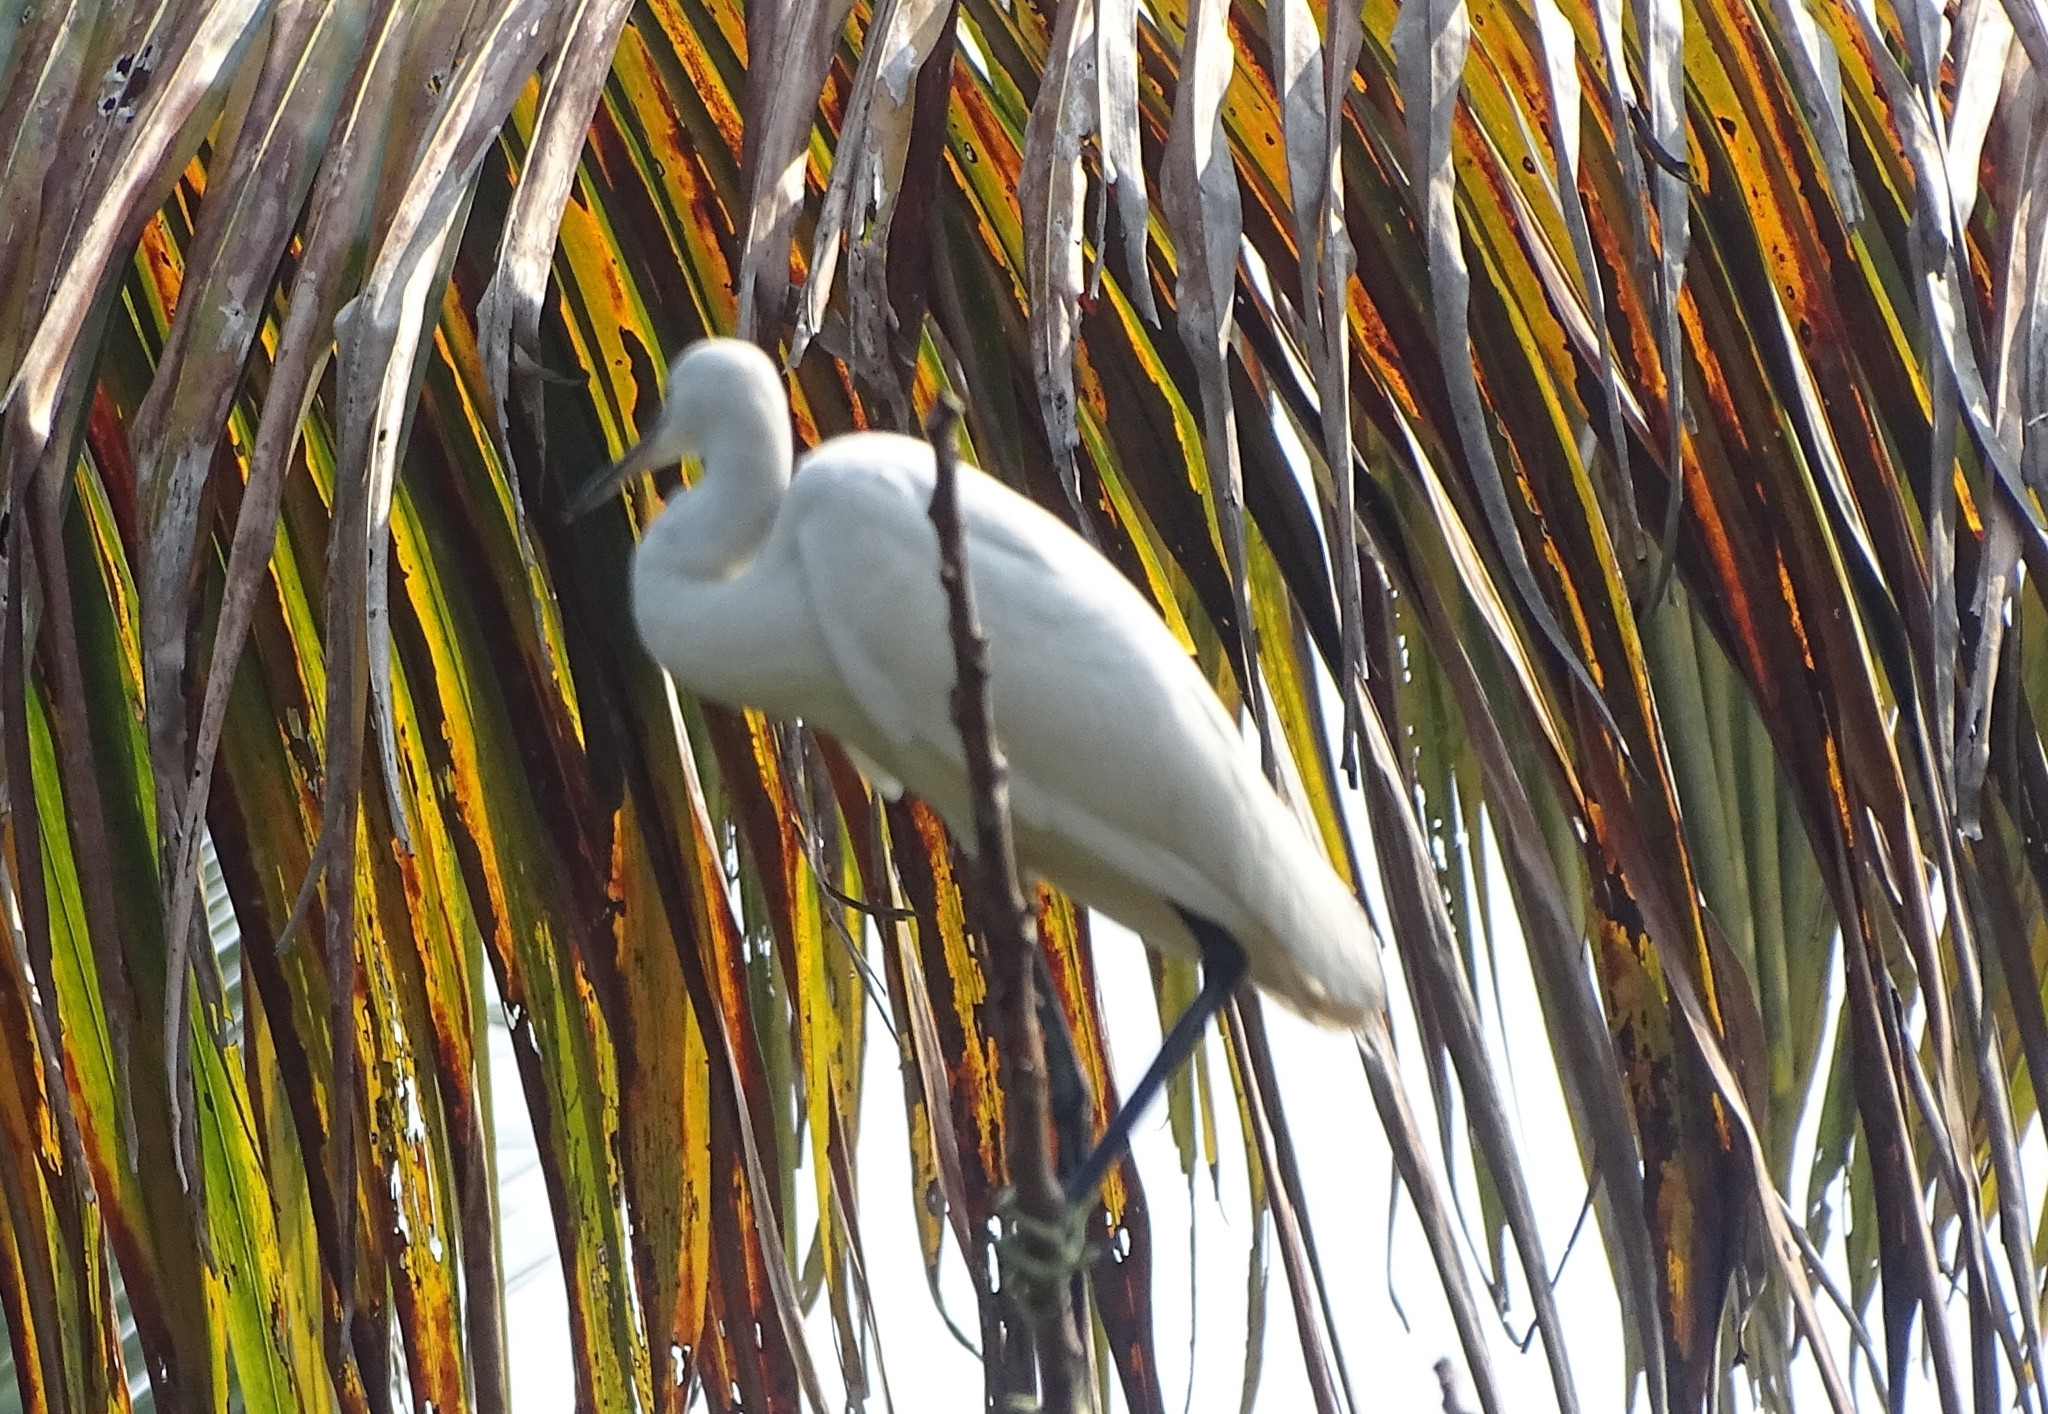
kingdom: Animalia
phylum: Chordata
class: Aves
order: Pelecaniformes
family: Ardeidae
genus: Egretta
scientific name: Egretta garzetta
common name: Little egret
